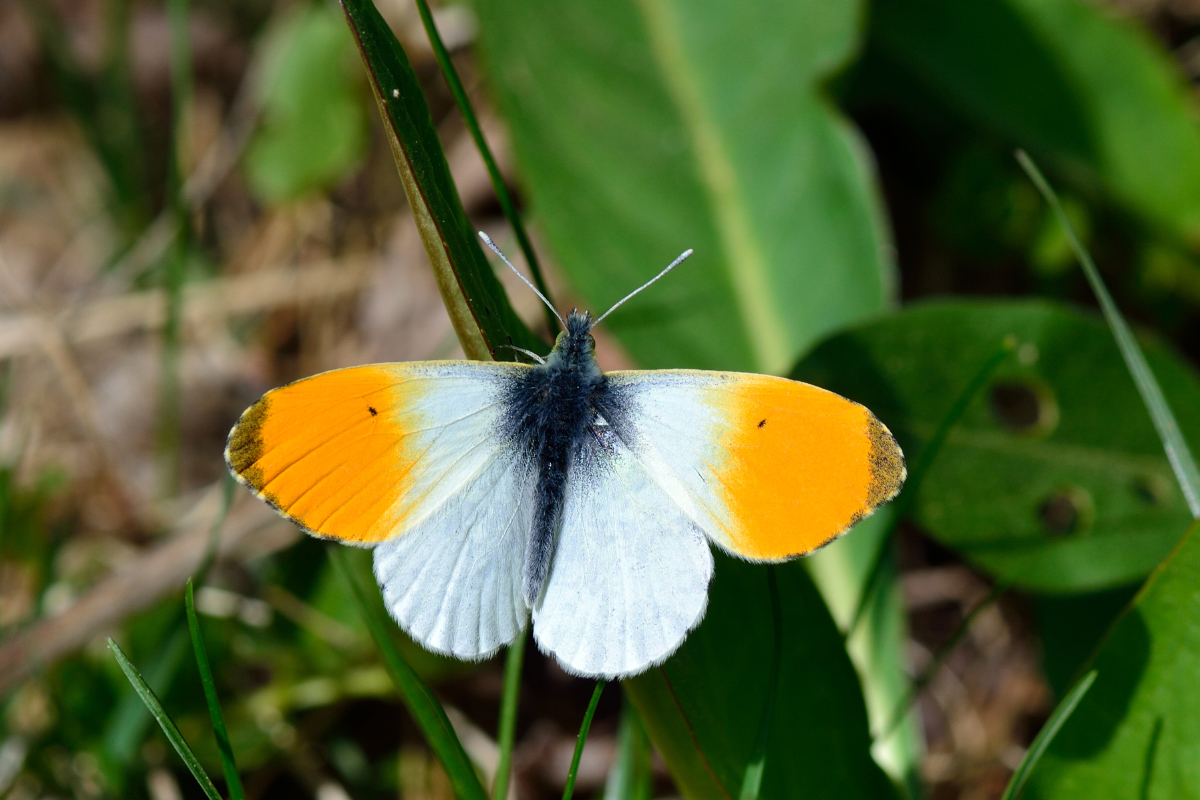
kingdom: Animalia
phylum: Arthropoda
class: Insecta
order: Lepidoptera
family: Pieridae
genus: Anthocharis
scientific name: Anthocharis cardamines
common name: Orange-tip
